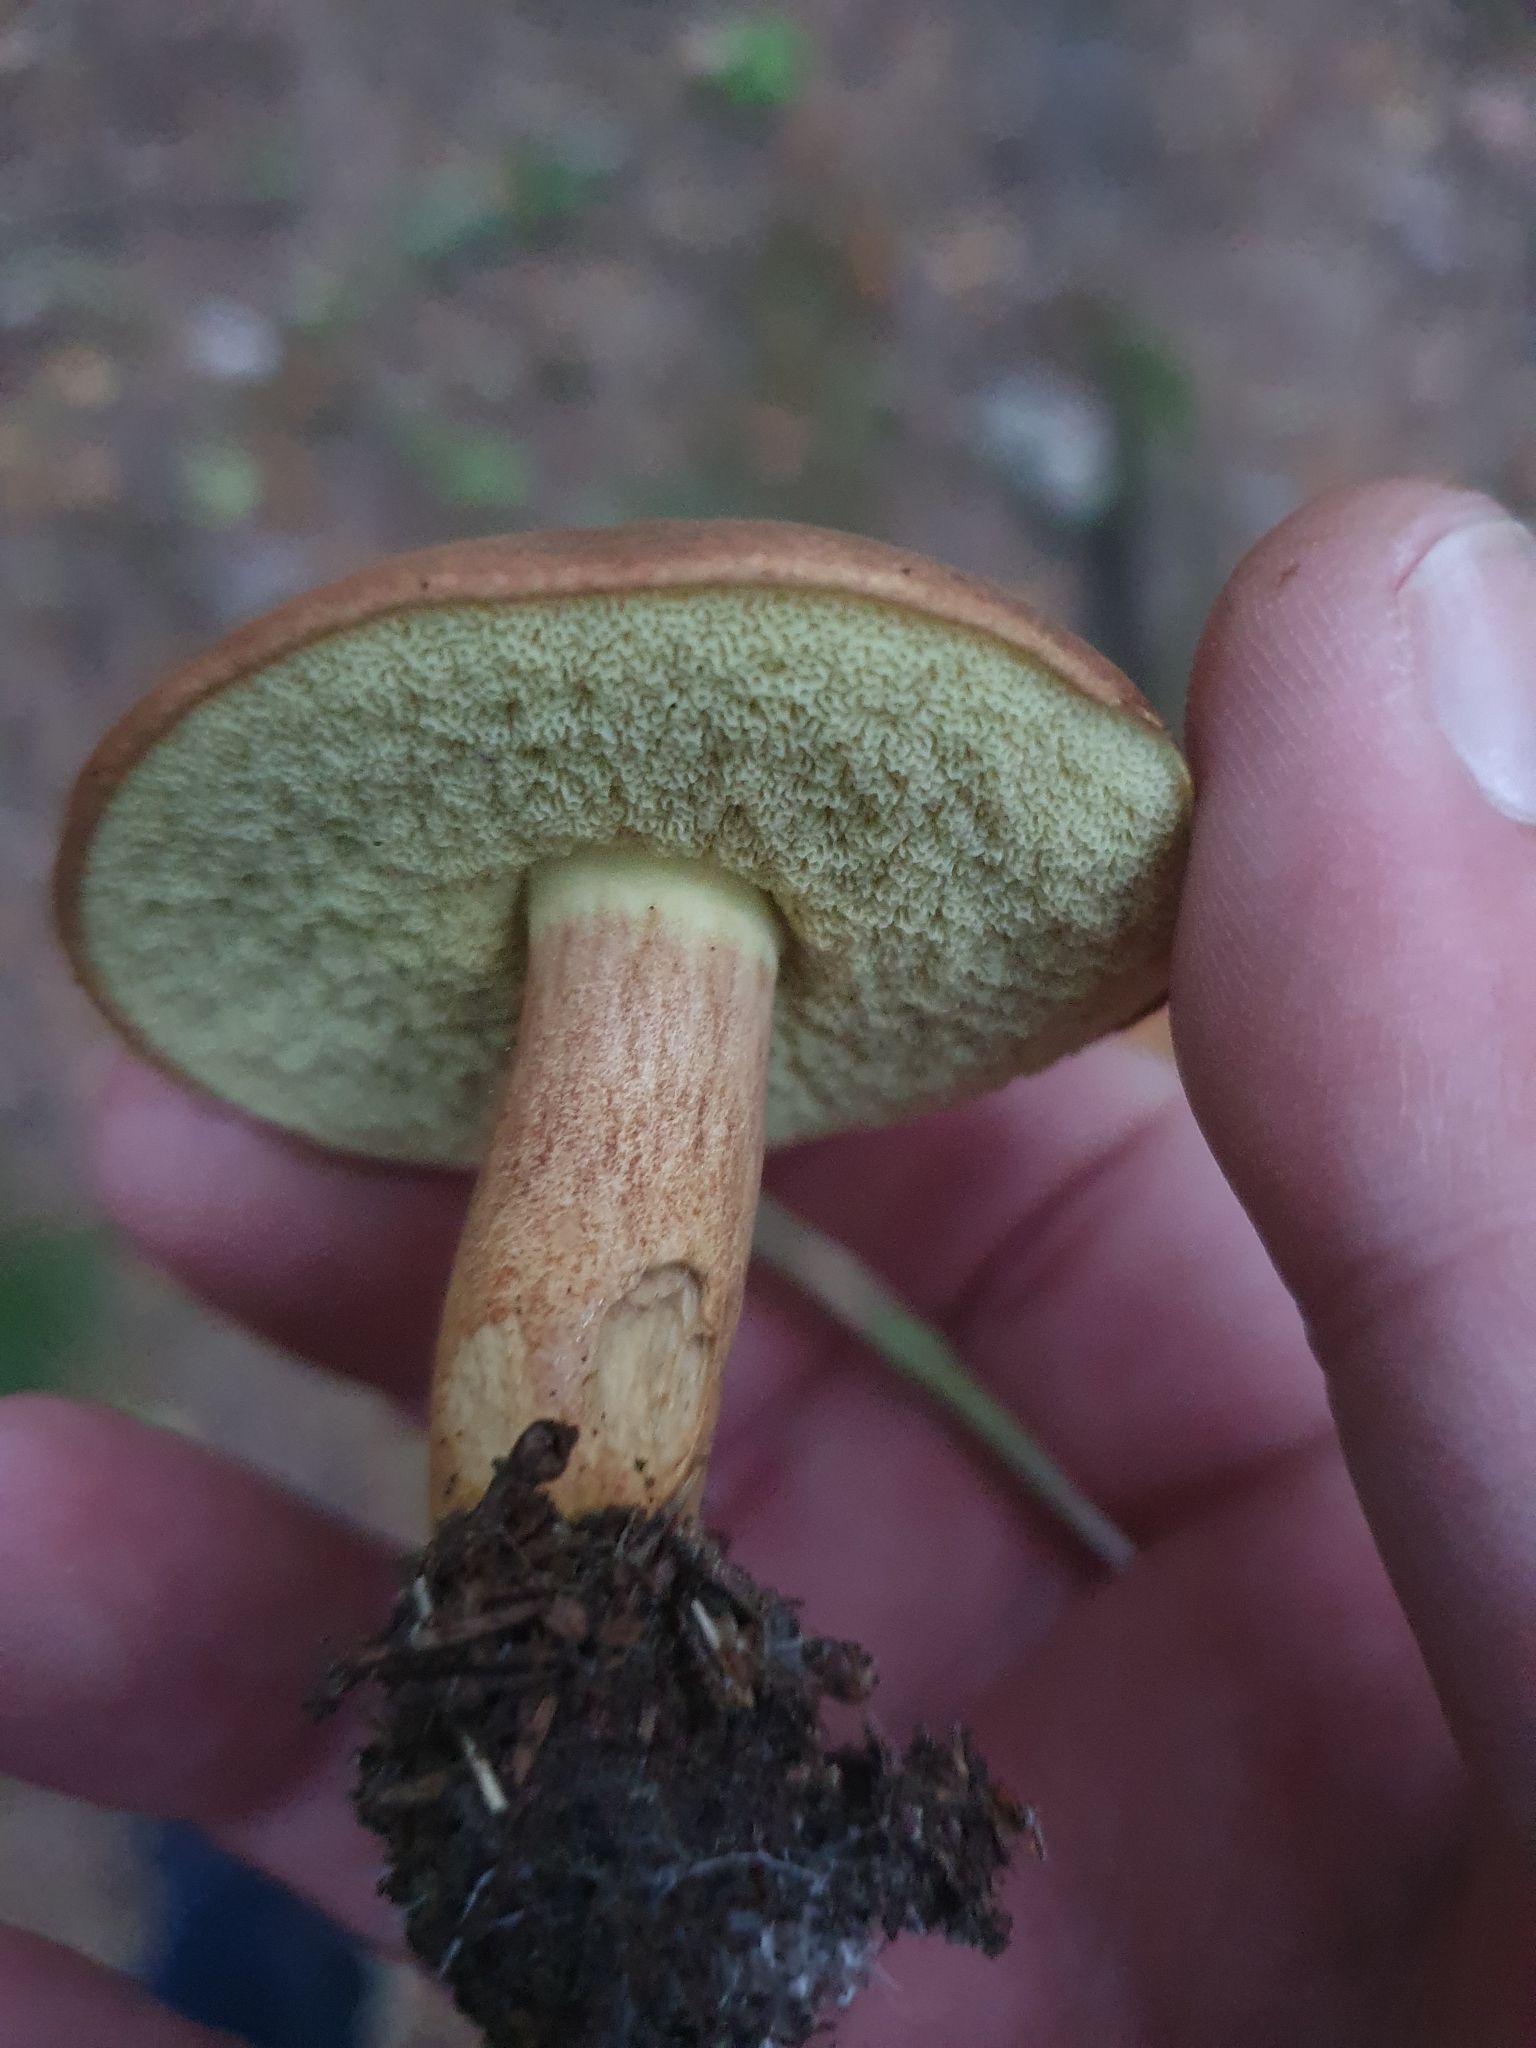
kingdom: Fungi
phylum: Basidiomycota
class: Agaricomycetes
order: Boletales
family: Boletaceae
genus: Imleria
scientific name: Imleria badia
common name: Bay bolete
